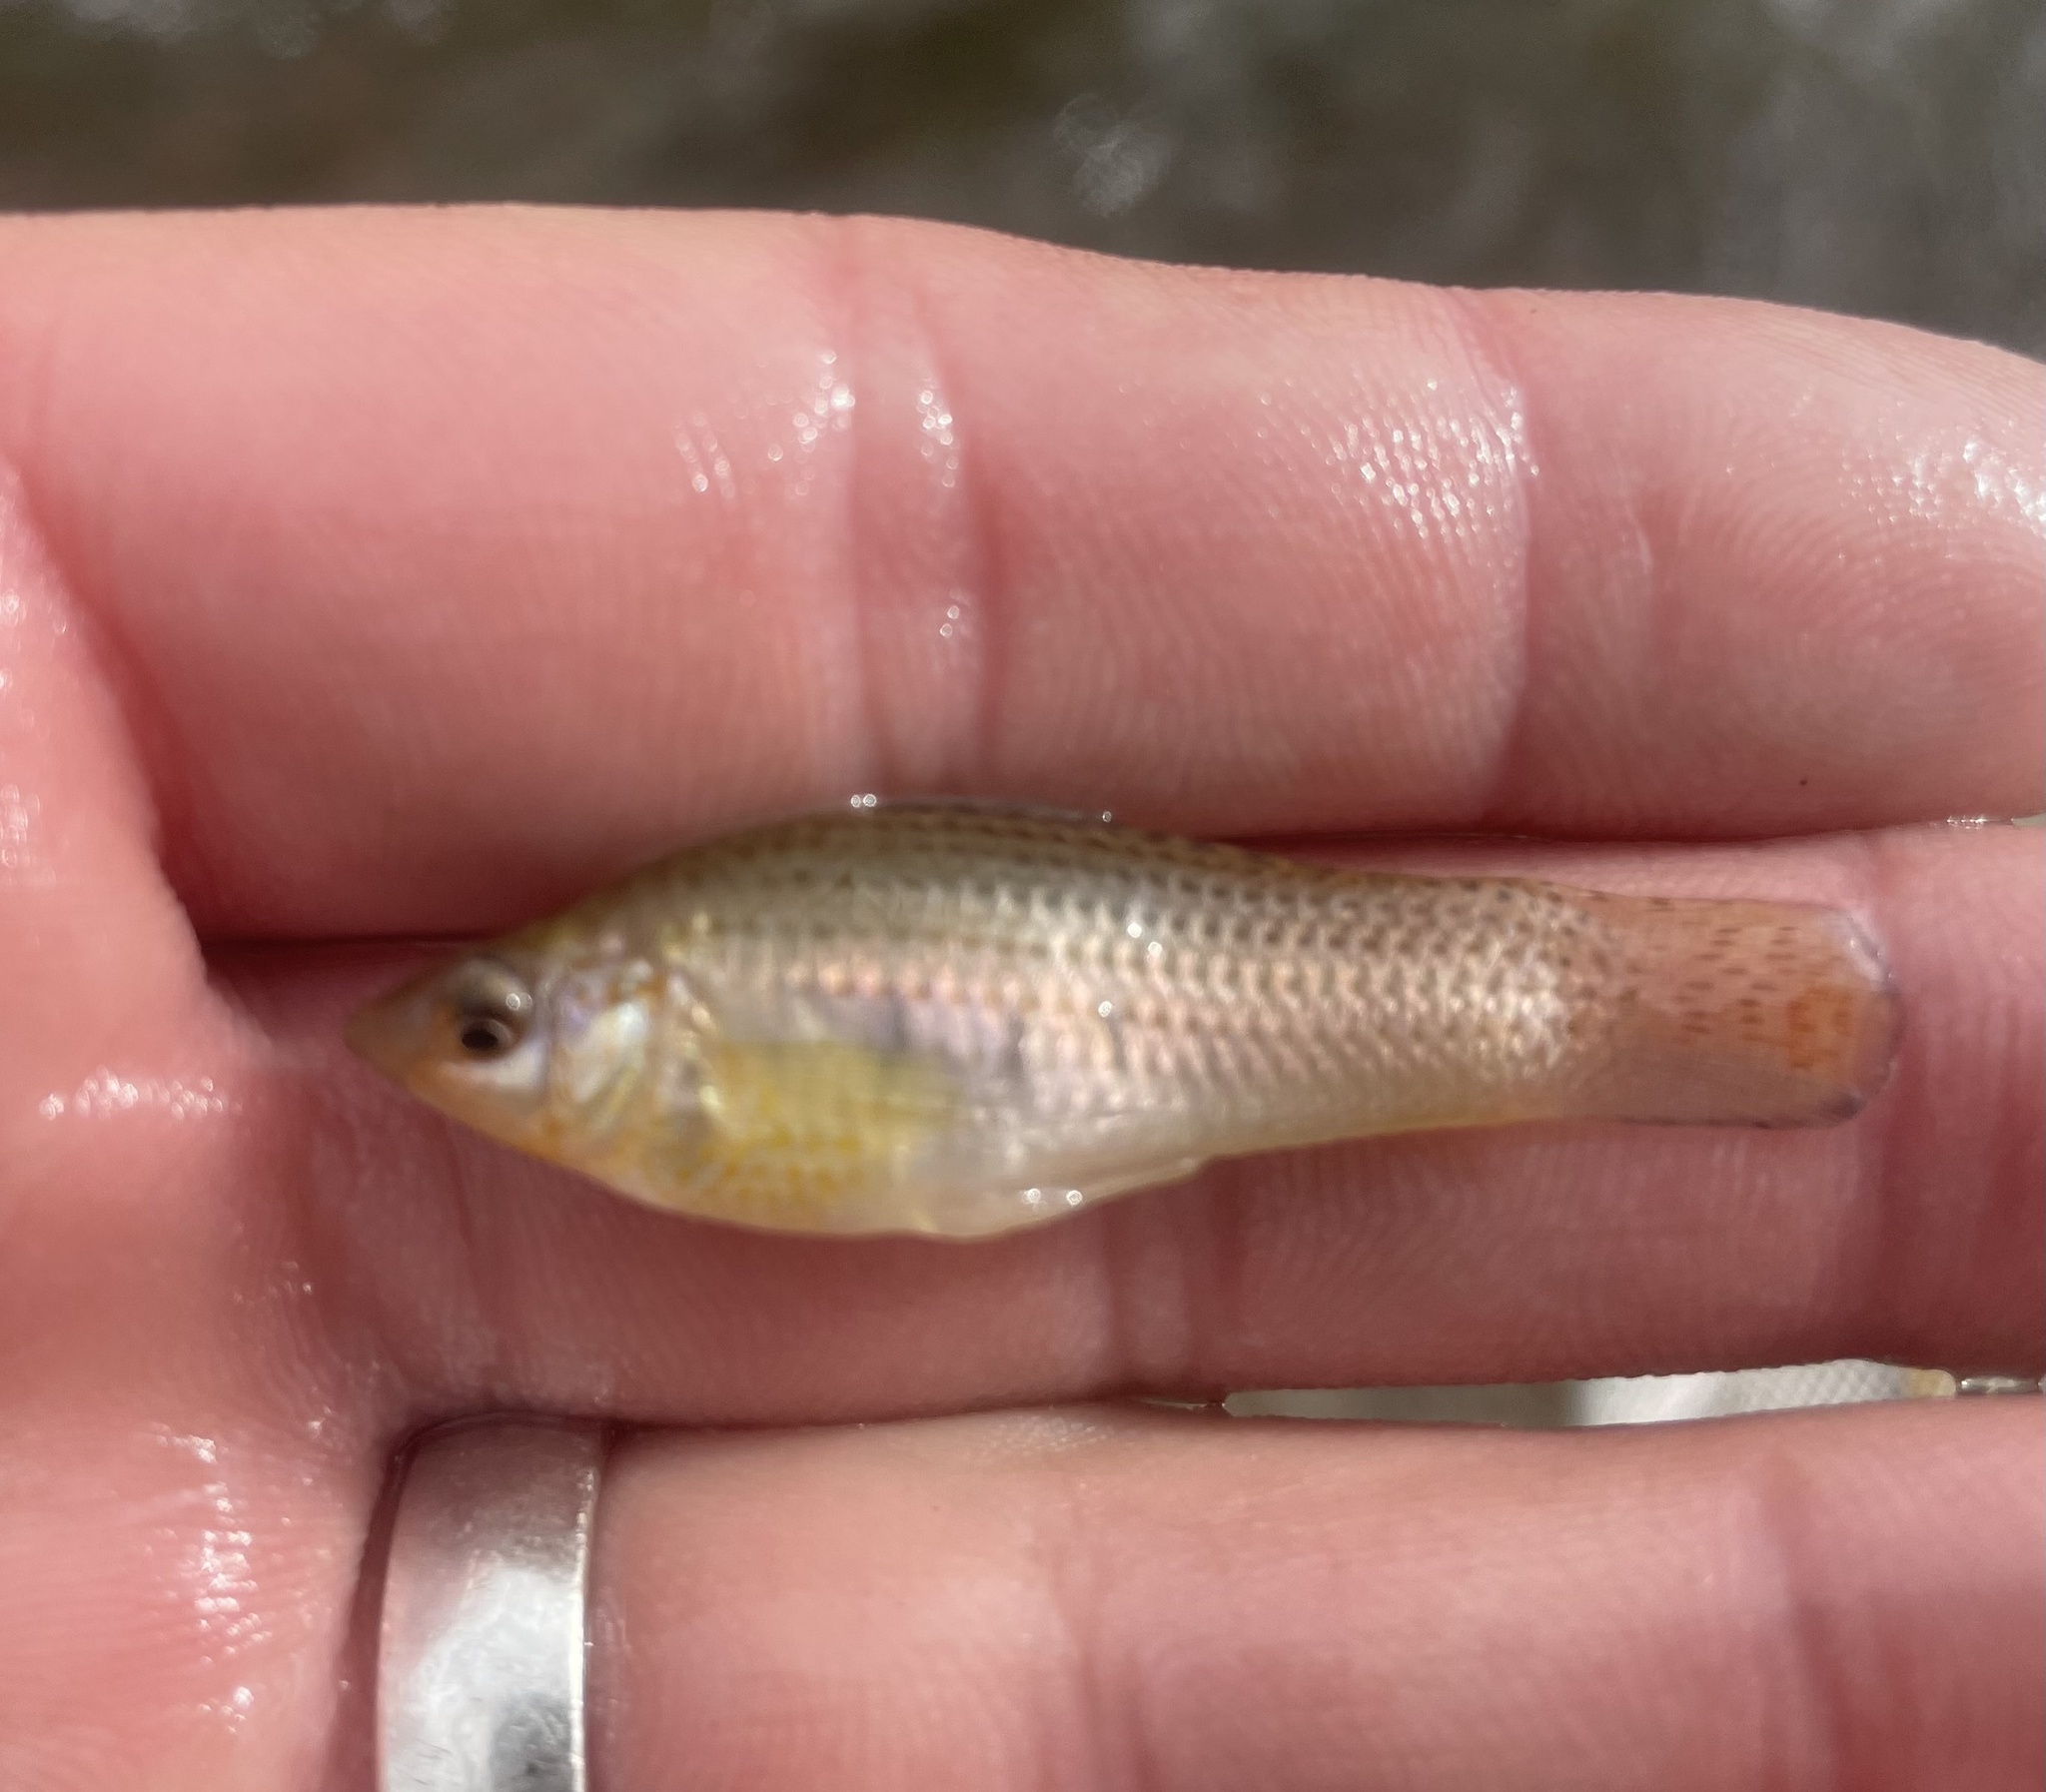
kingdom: Animalia
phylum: Chordata
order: Cyprinodontiformes
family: Poeciliidae
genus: Poecilia
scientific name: Poecilia latipinna
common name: Sailfin molly
